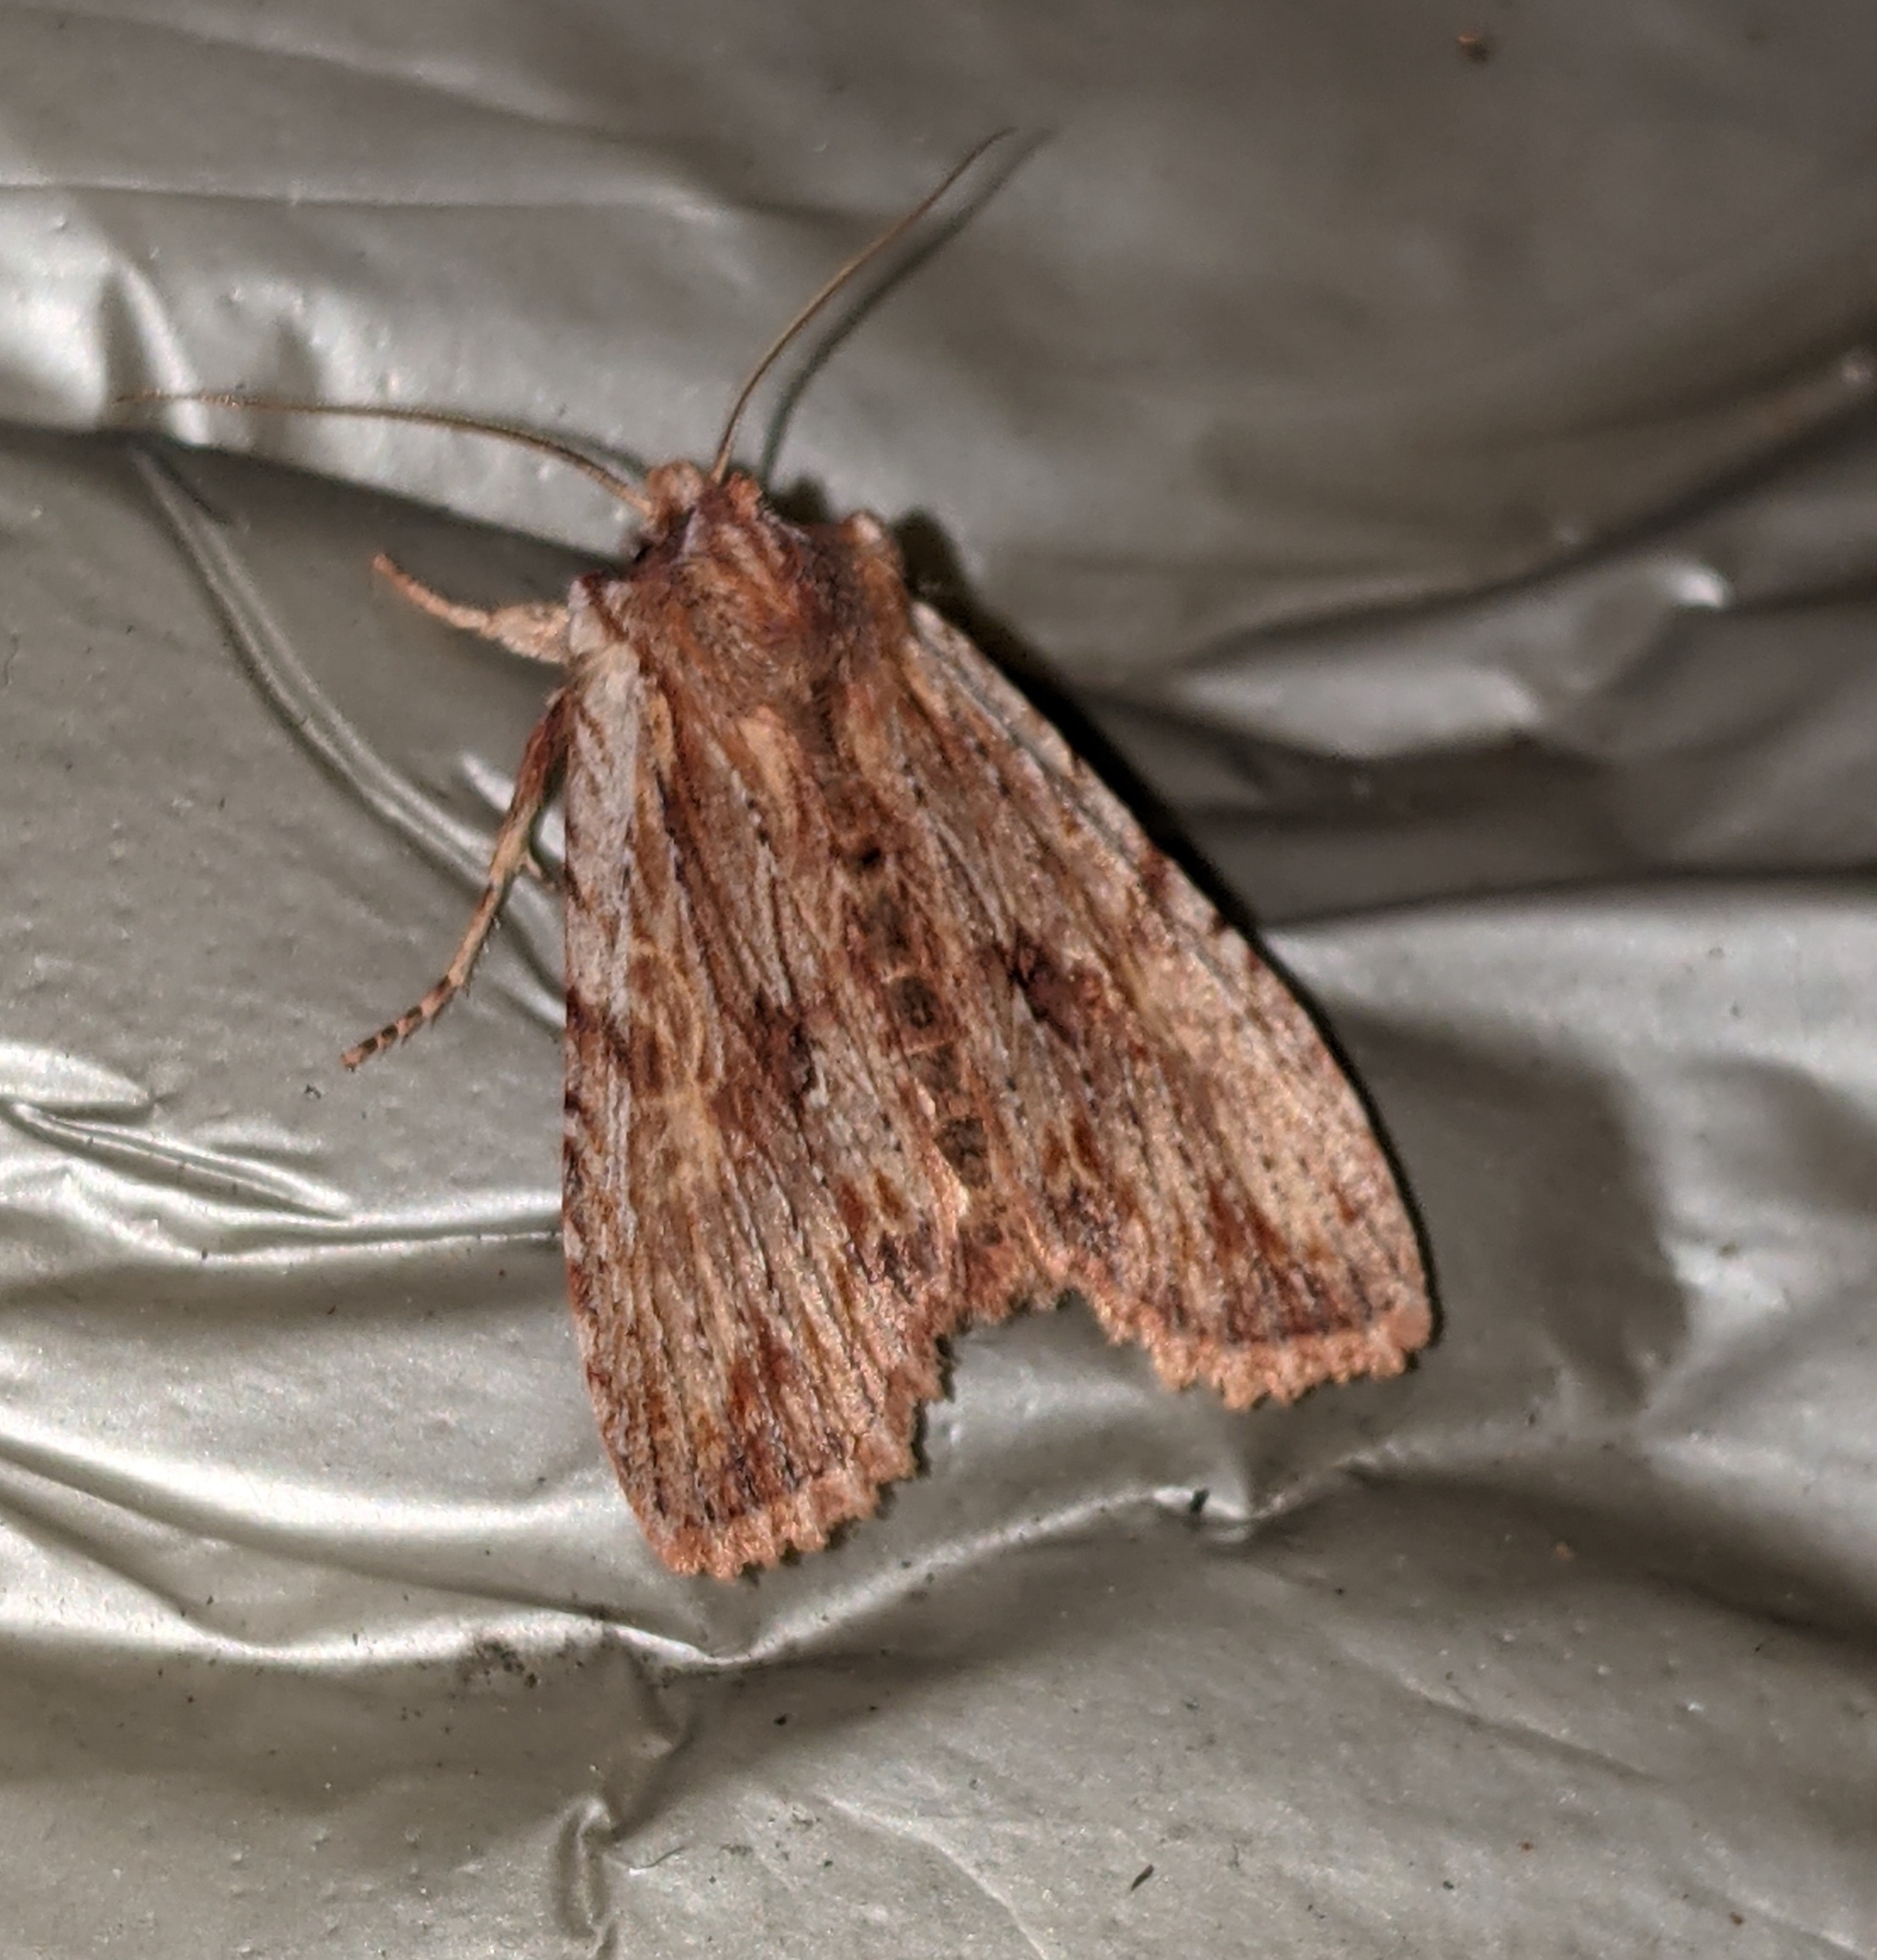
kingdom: Animalia
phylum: Arthropoda
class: Insecta
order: Lepidoptera
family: Noctuidae
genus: Lithophane
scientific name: Lithophane petulca
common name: Wanton pinion
